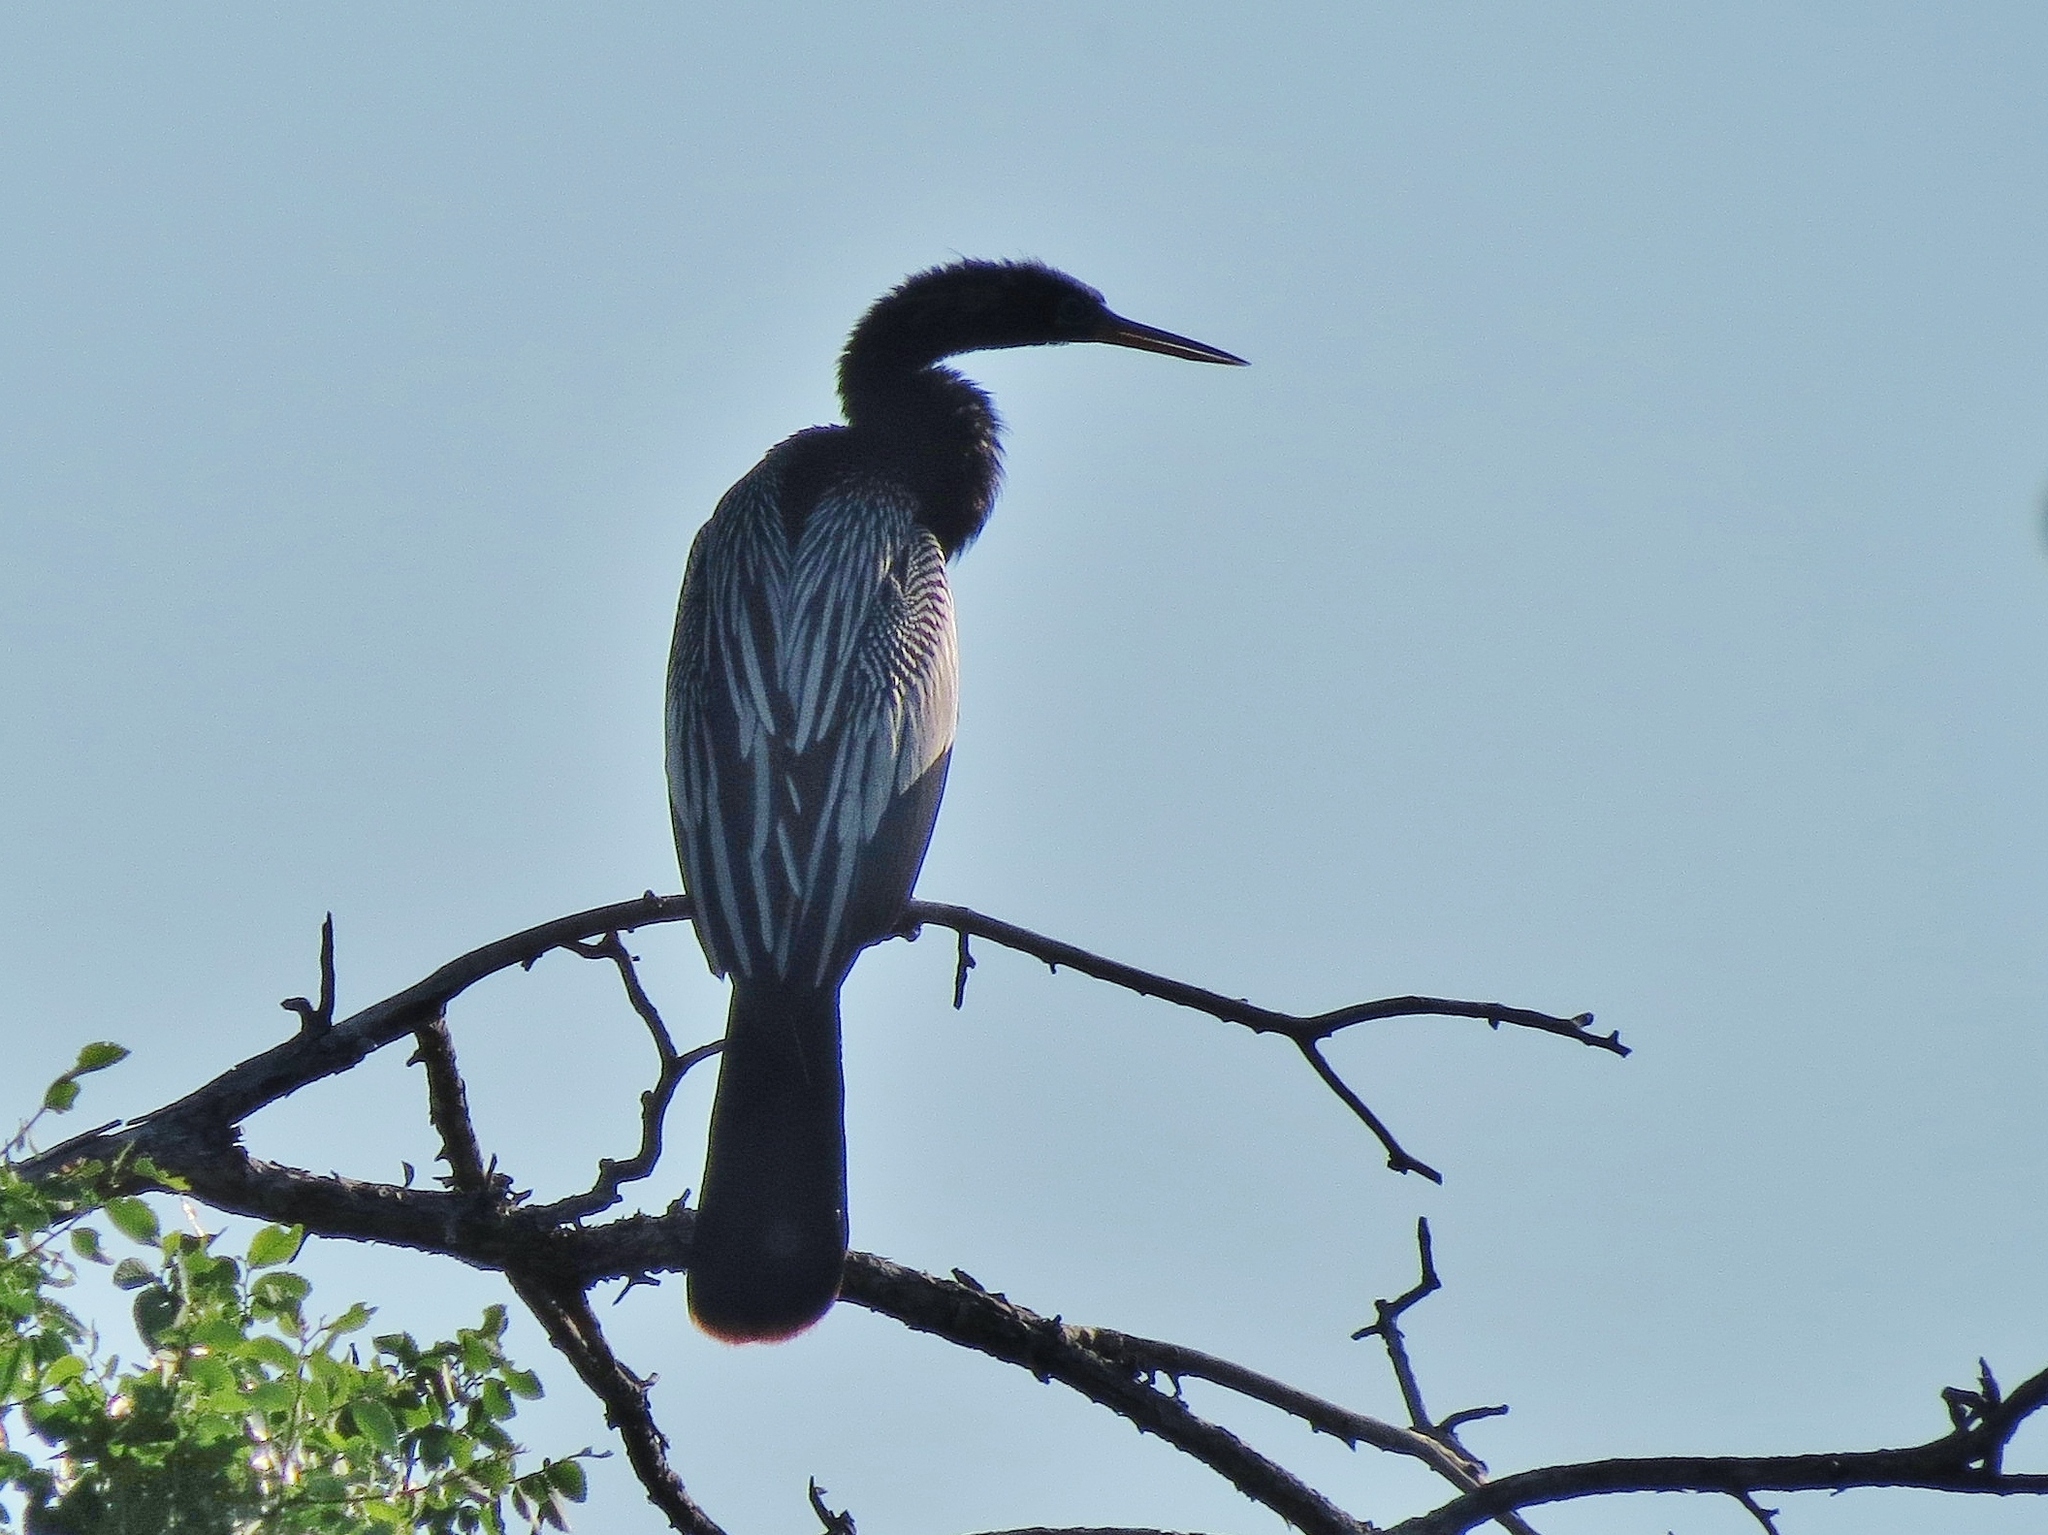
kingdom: Animalia
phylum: Chordata
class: Aves
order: Suliformes
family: Anhingidae
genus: Anhinga
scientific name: Anhinga anhinga
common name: Anhinga
